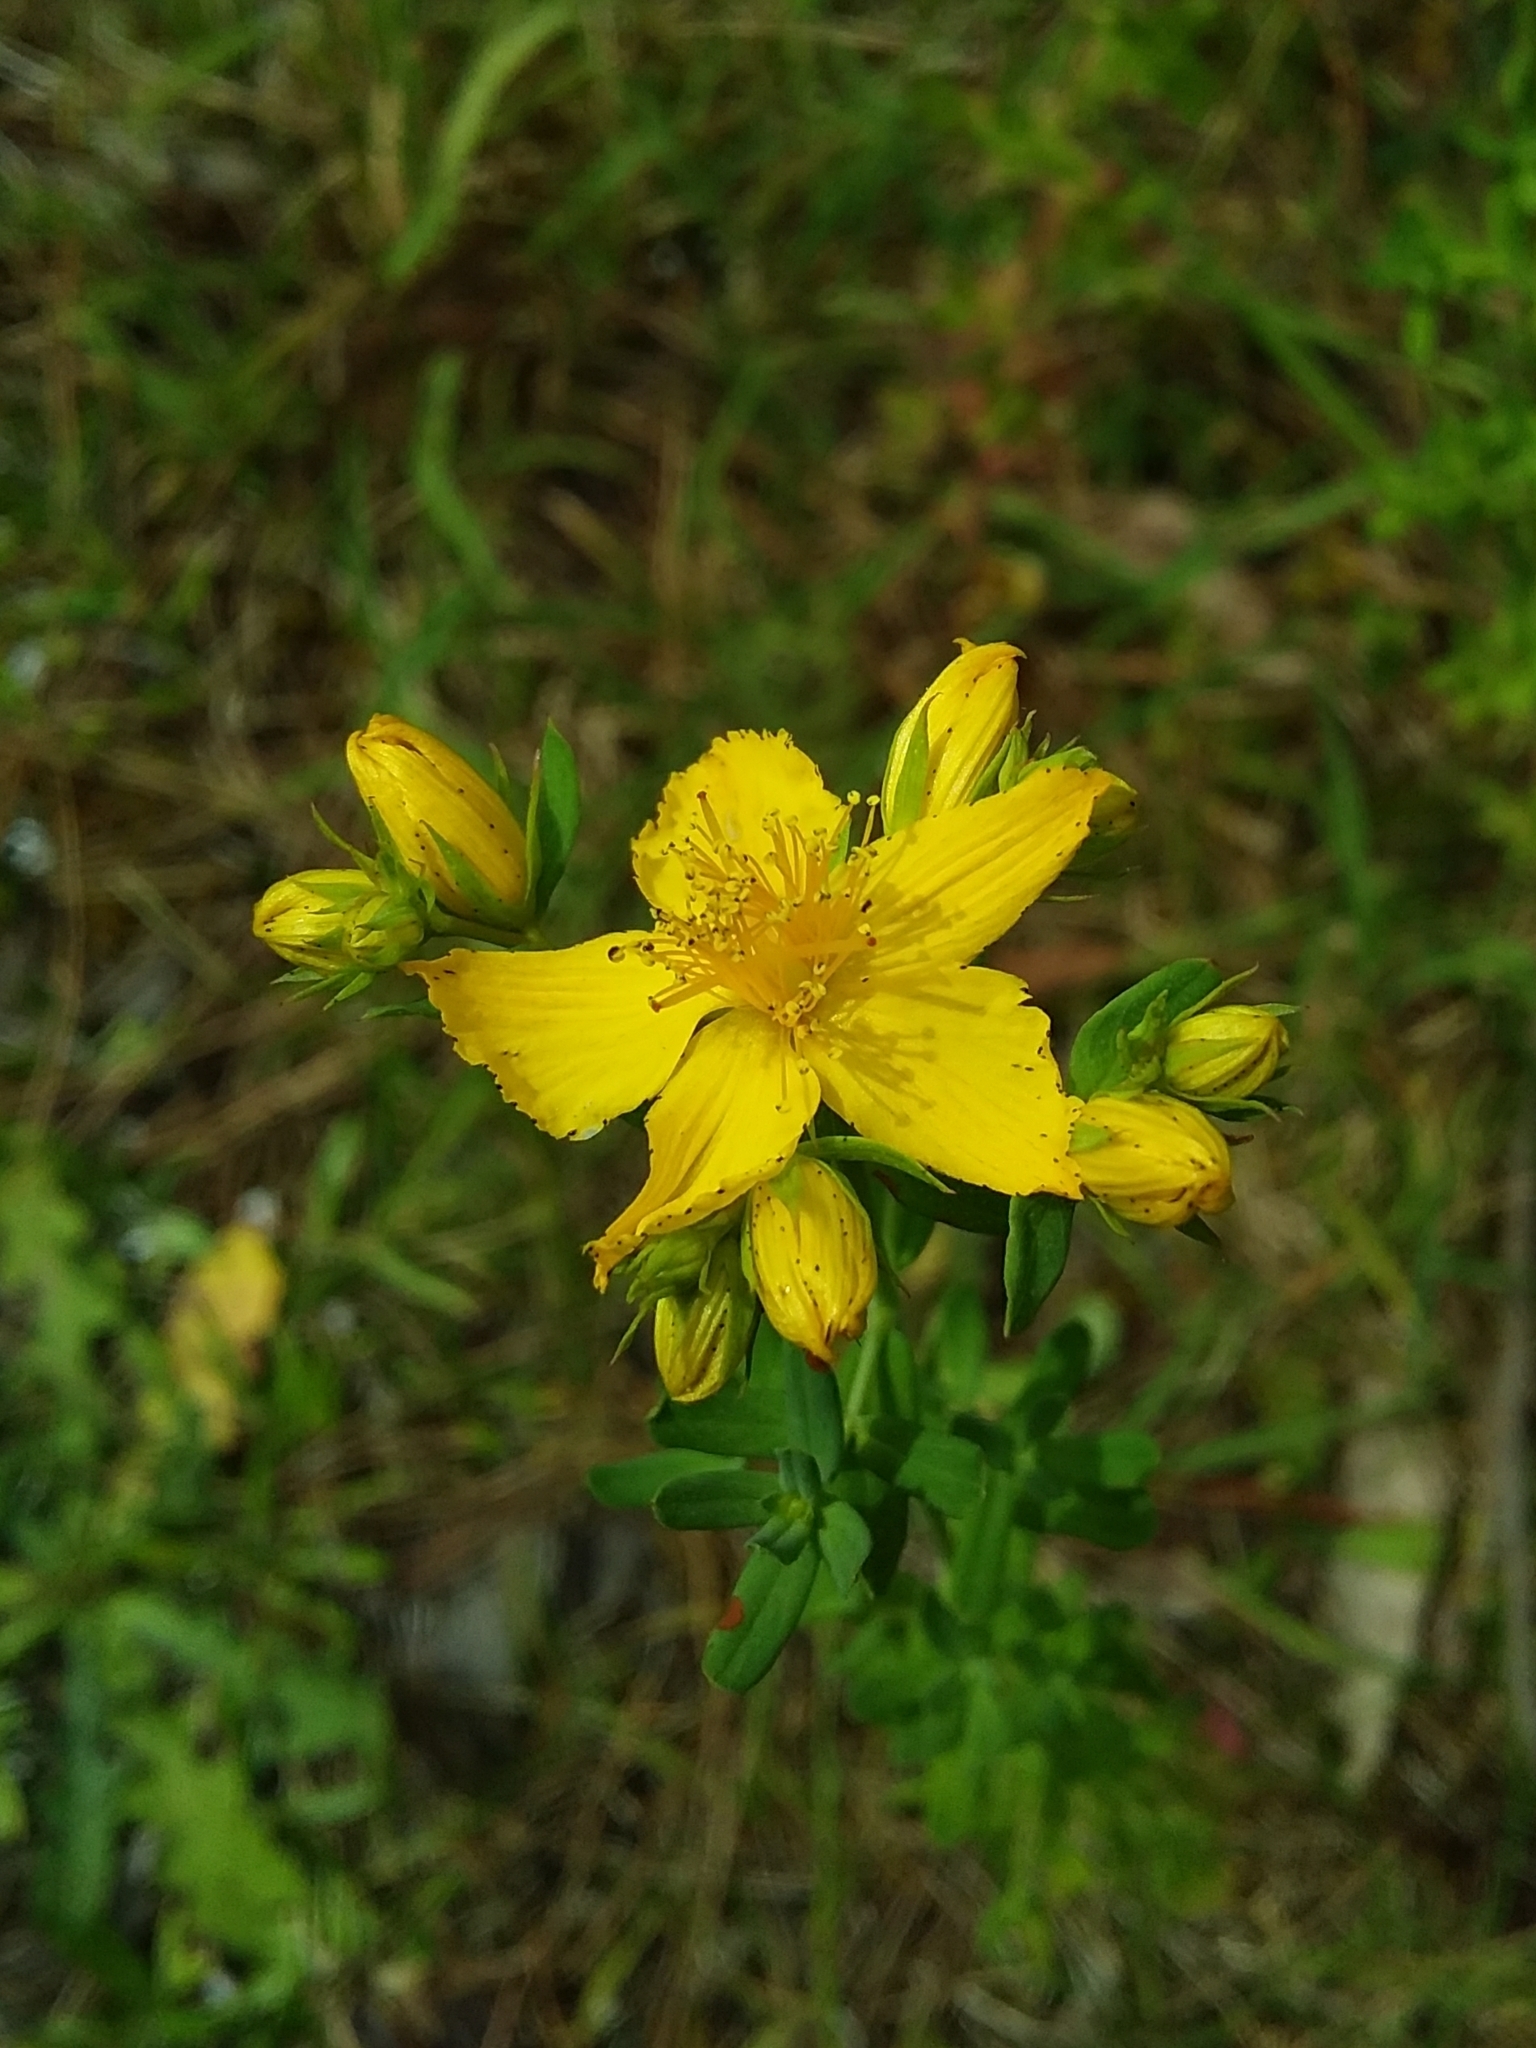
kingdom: Plantae
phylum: Tracheophyta
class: Magnoliopsida
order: Malpighiales
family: Hypericaceae
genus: Hypericum
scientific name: Hypericum perforatum
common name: Common st. johnswort
